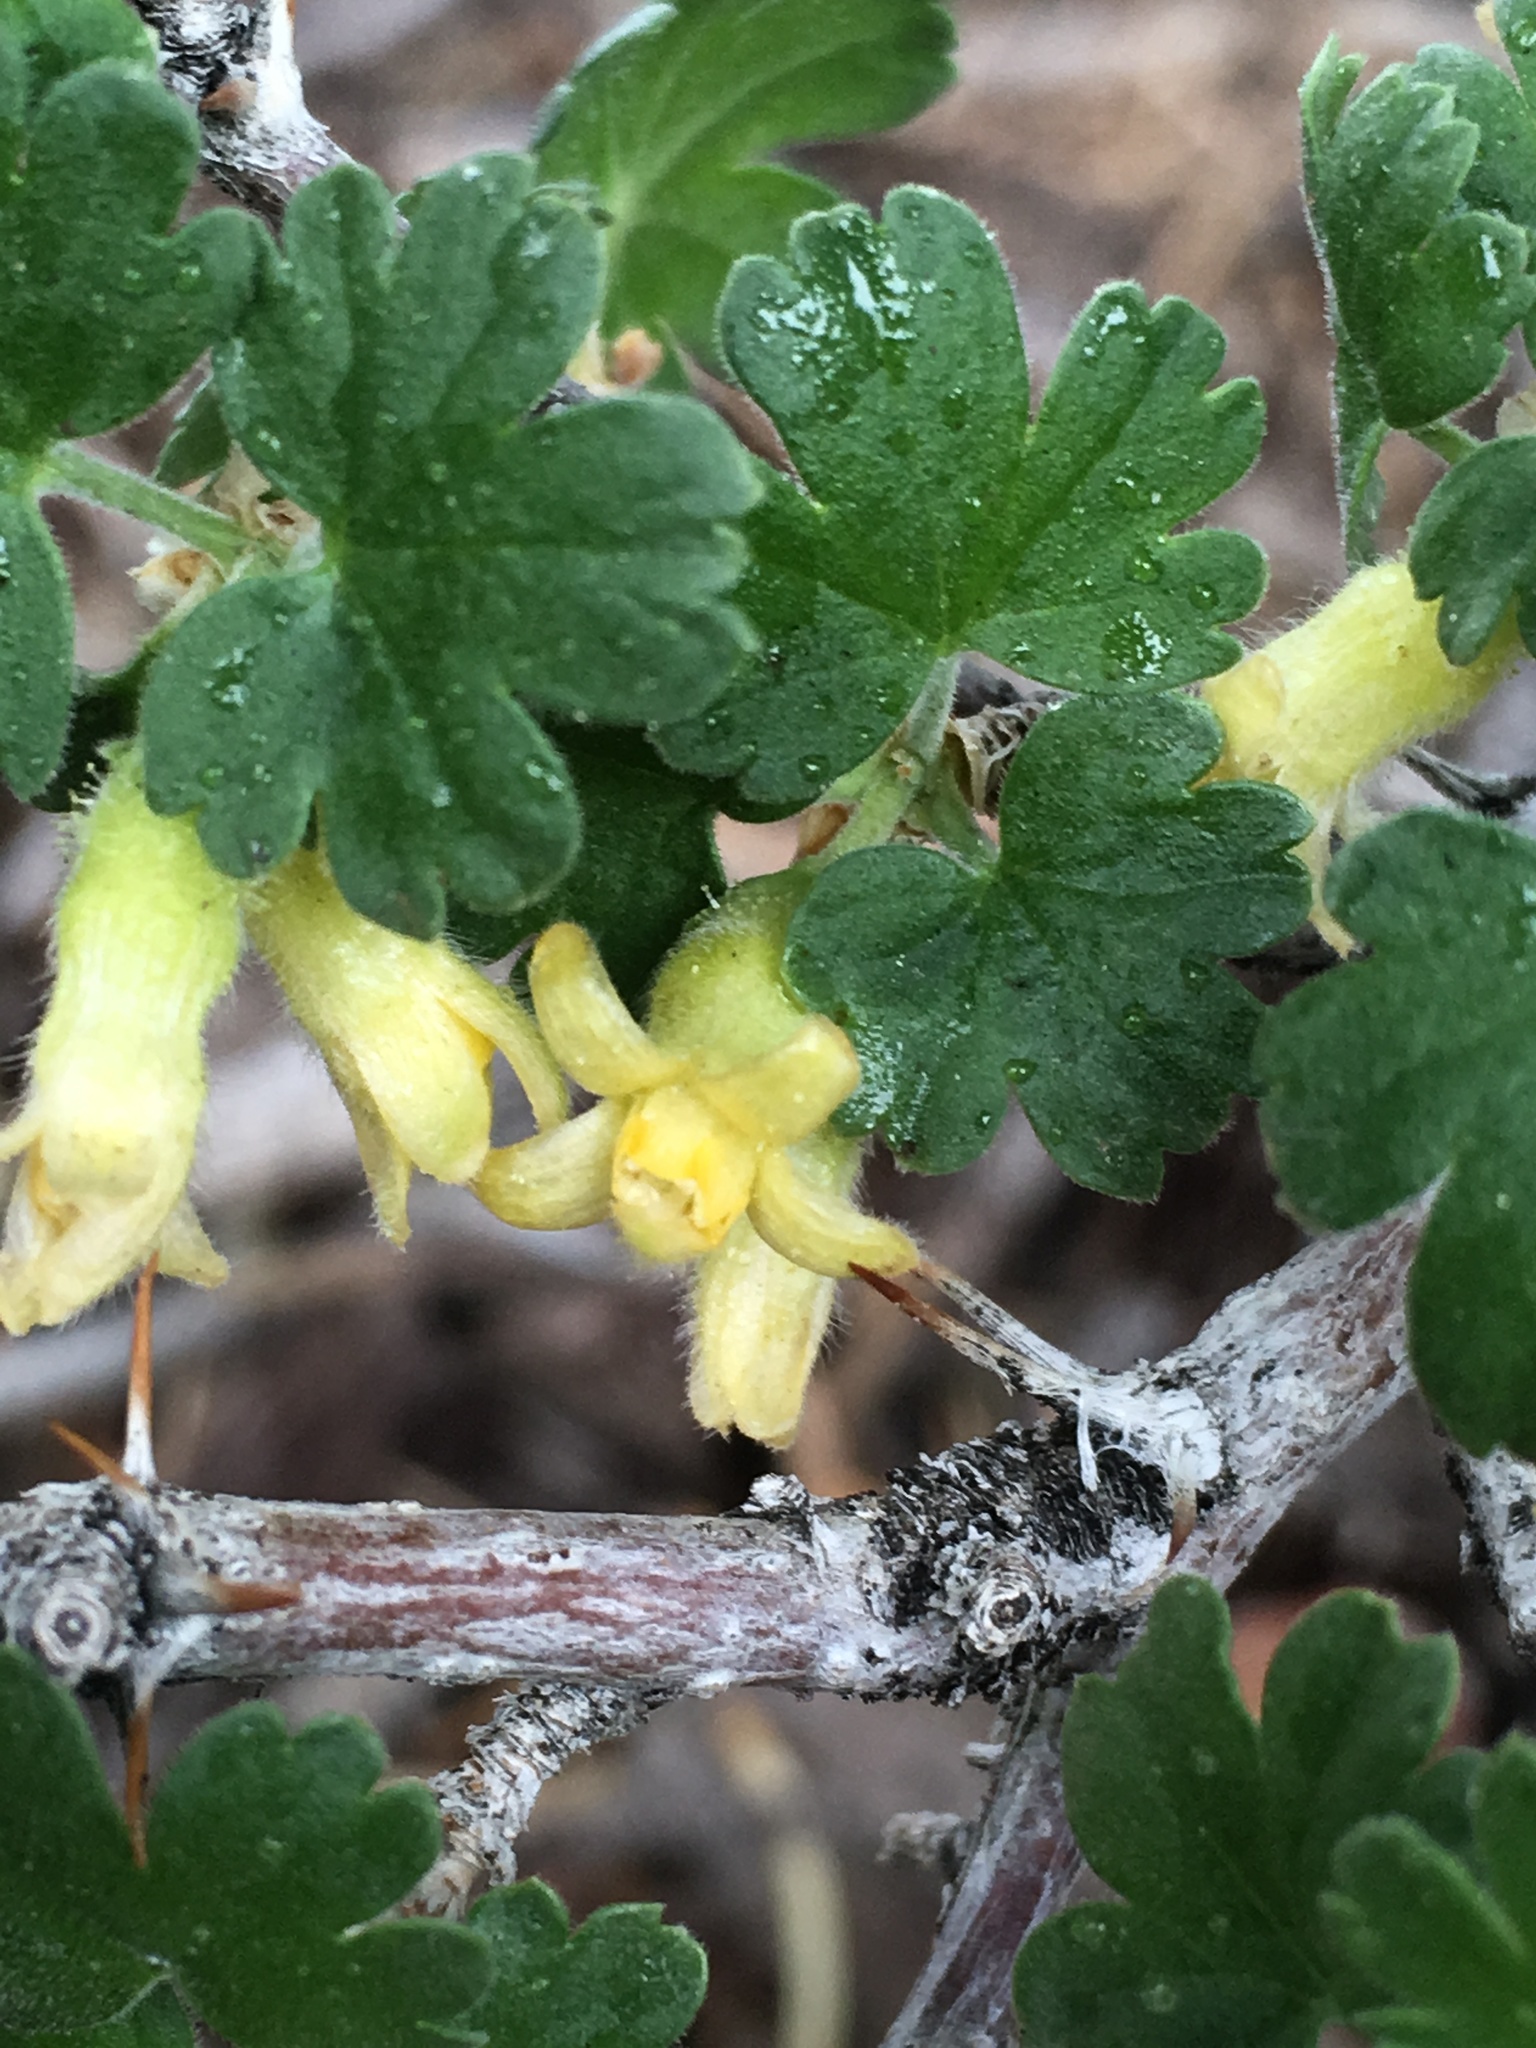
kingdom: Plantae
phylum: Tracheophyta
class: Magnoliopsida
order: Saxifragales
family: Grossulariaceae
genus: Ribes
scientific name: Ribes velutinum
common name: Desert gooseberry
